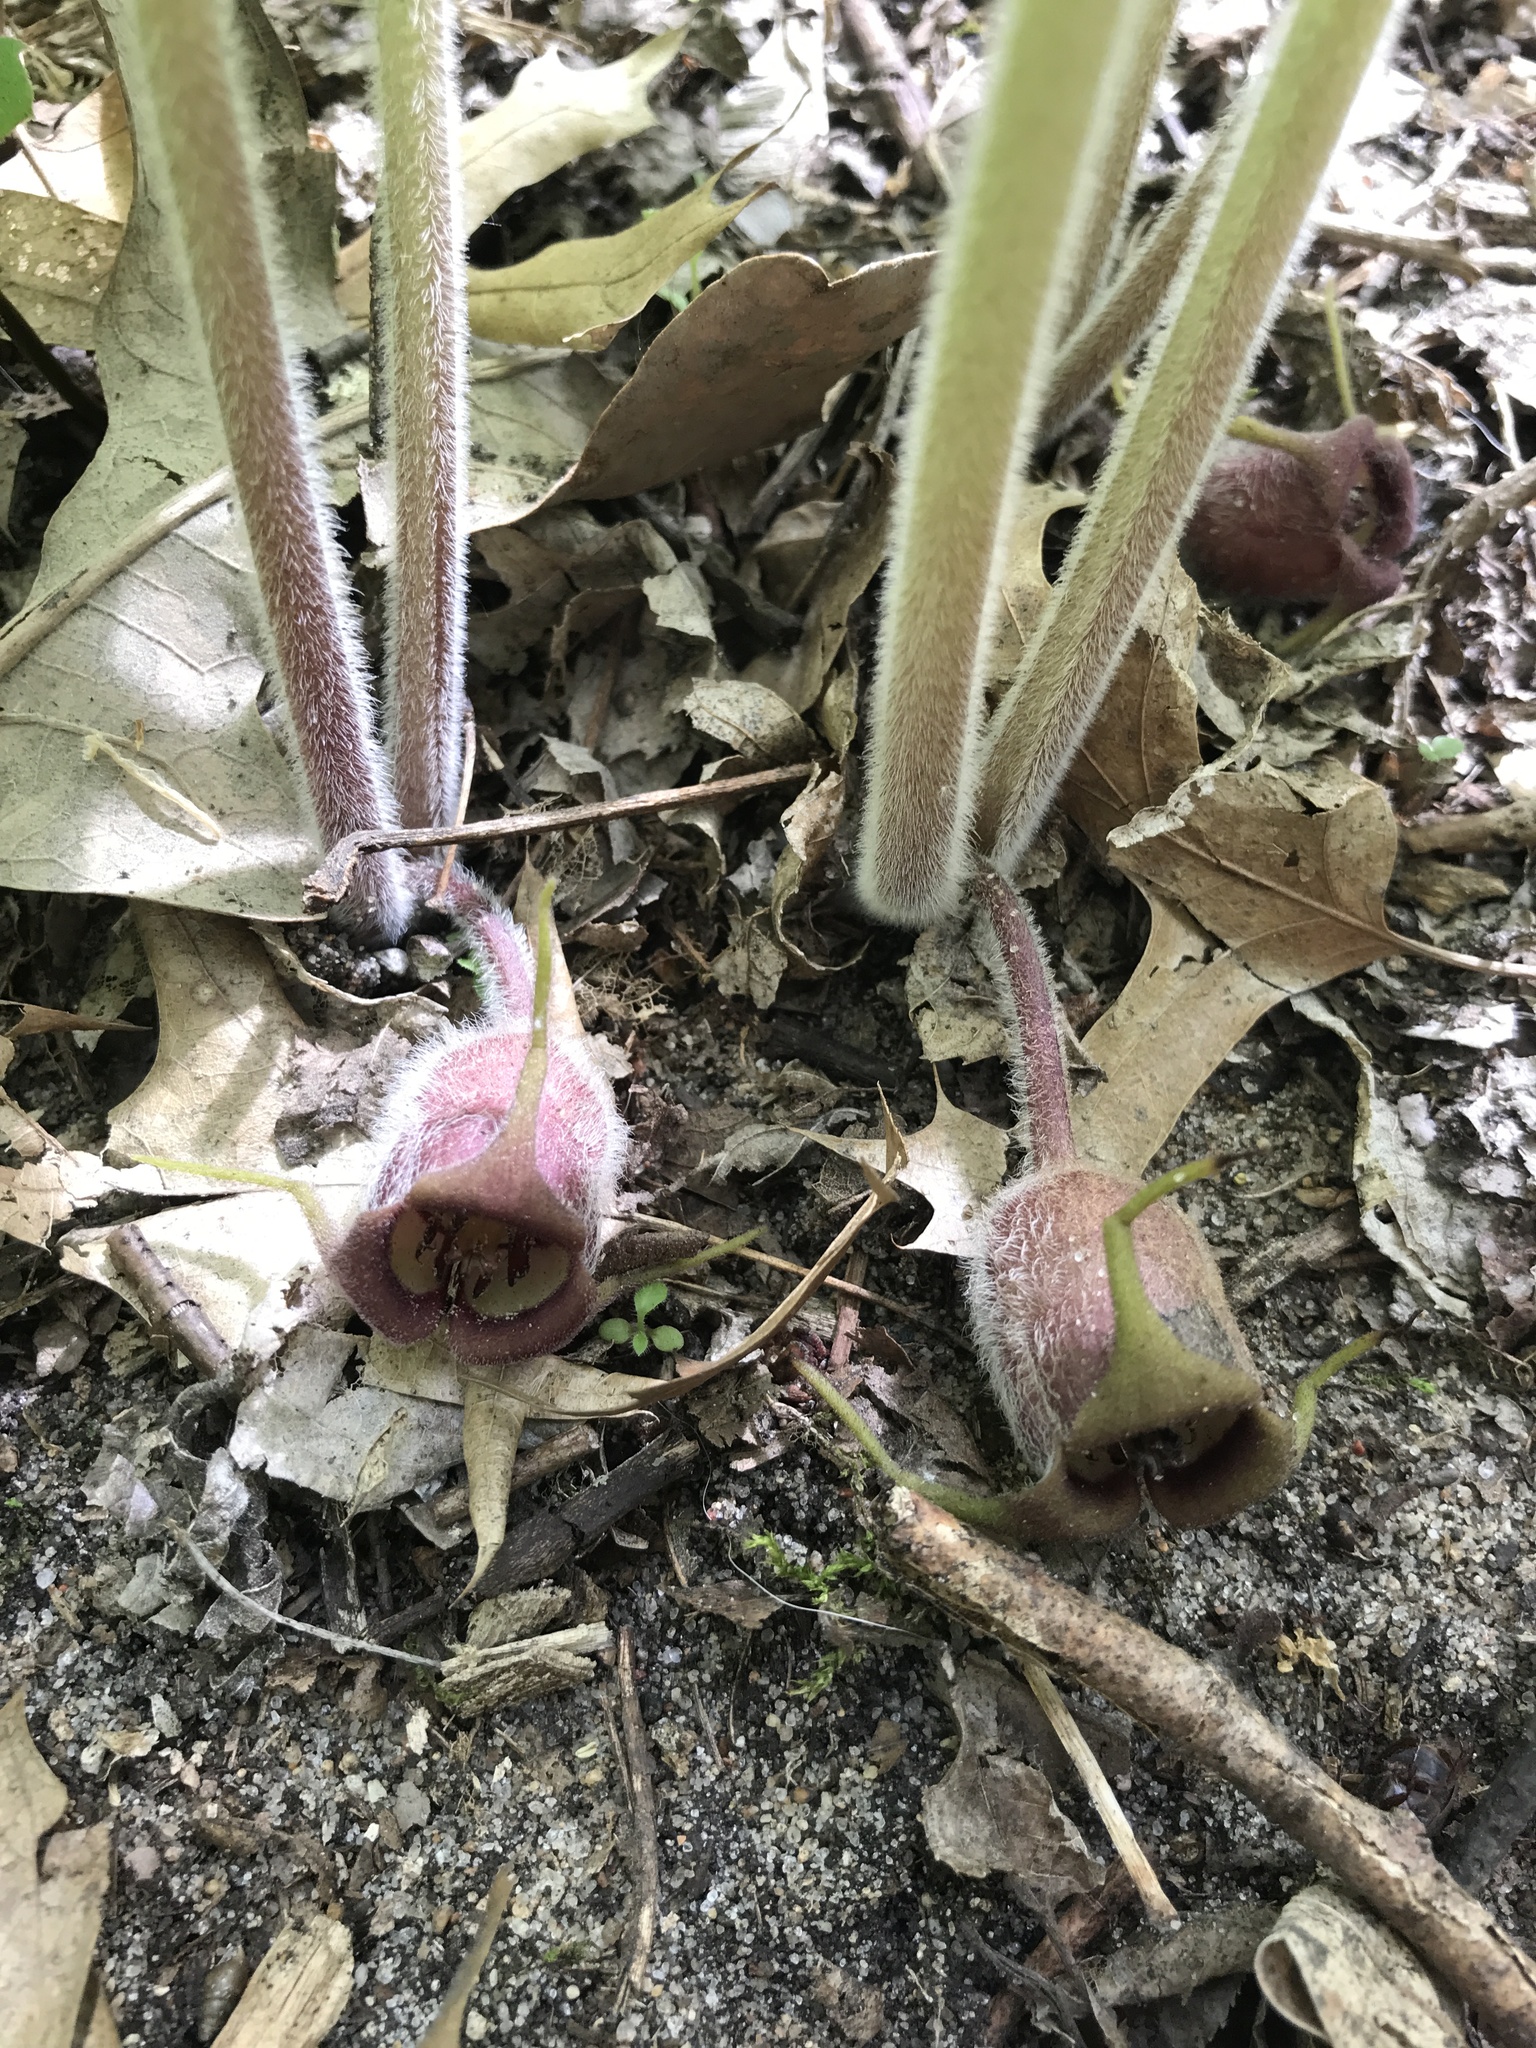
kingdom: Plantae
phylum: Tracheophyta
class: Magnoliopsida
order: Piperales
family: Aristolochiaceae
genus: Asarum
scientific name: Asarum canadense
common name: Wild ginger
